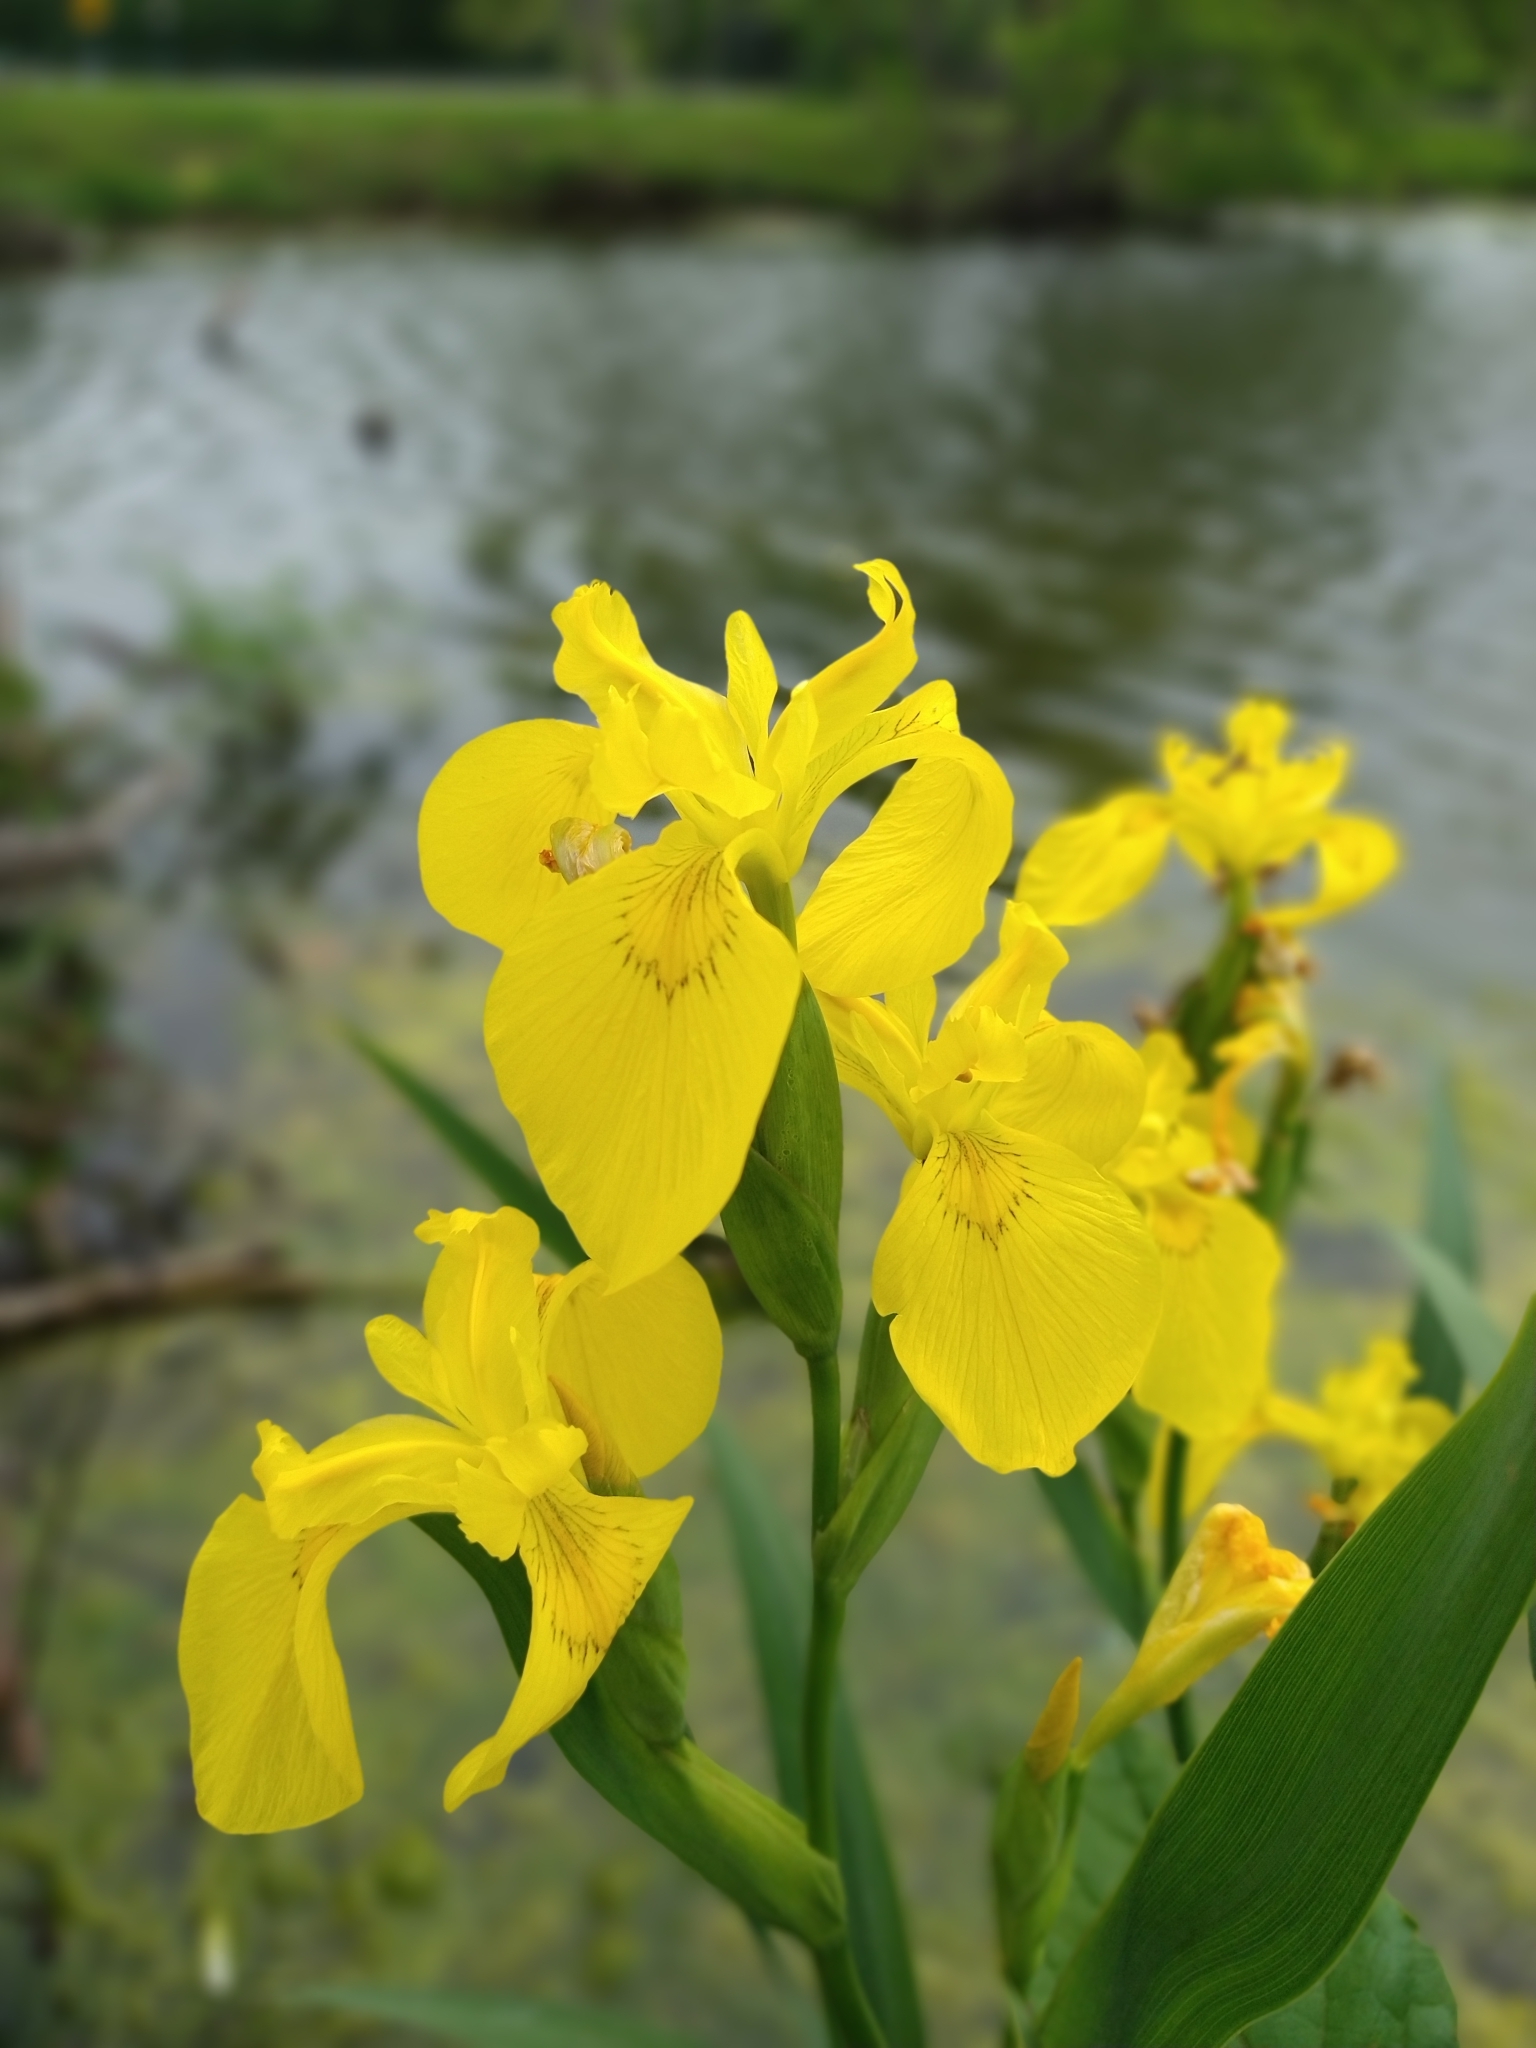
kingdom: Plantae
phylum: Tracheophyta
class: Liliopsida
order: Asparagales
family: Iridaceae
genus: Iris
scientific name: Iris pseudacorus
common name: Yellow flag
